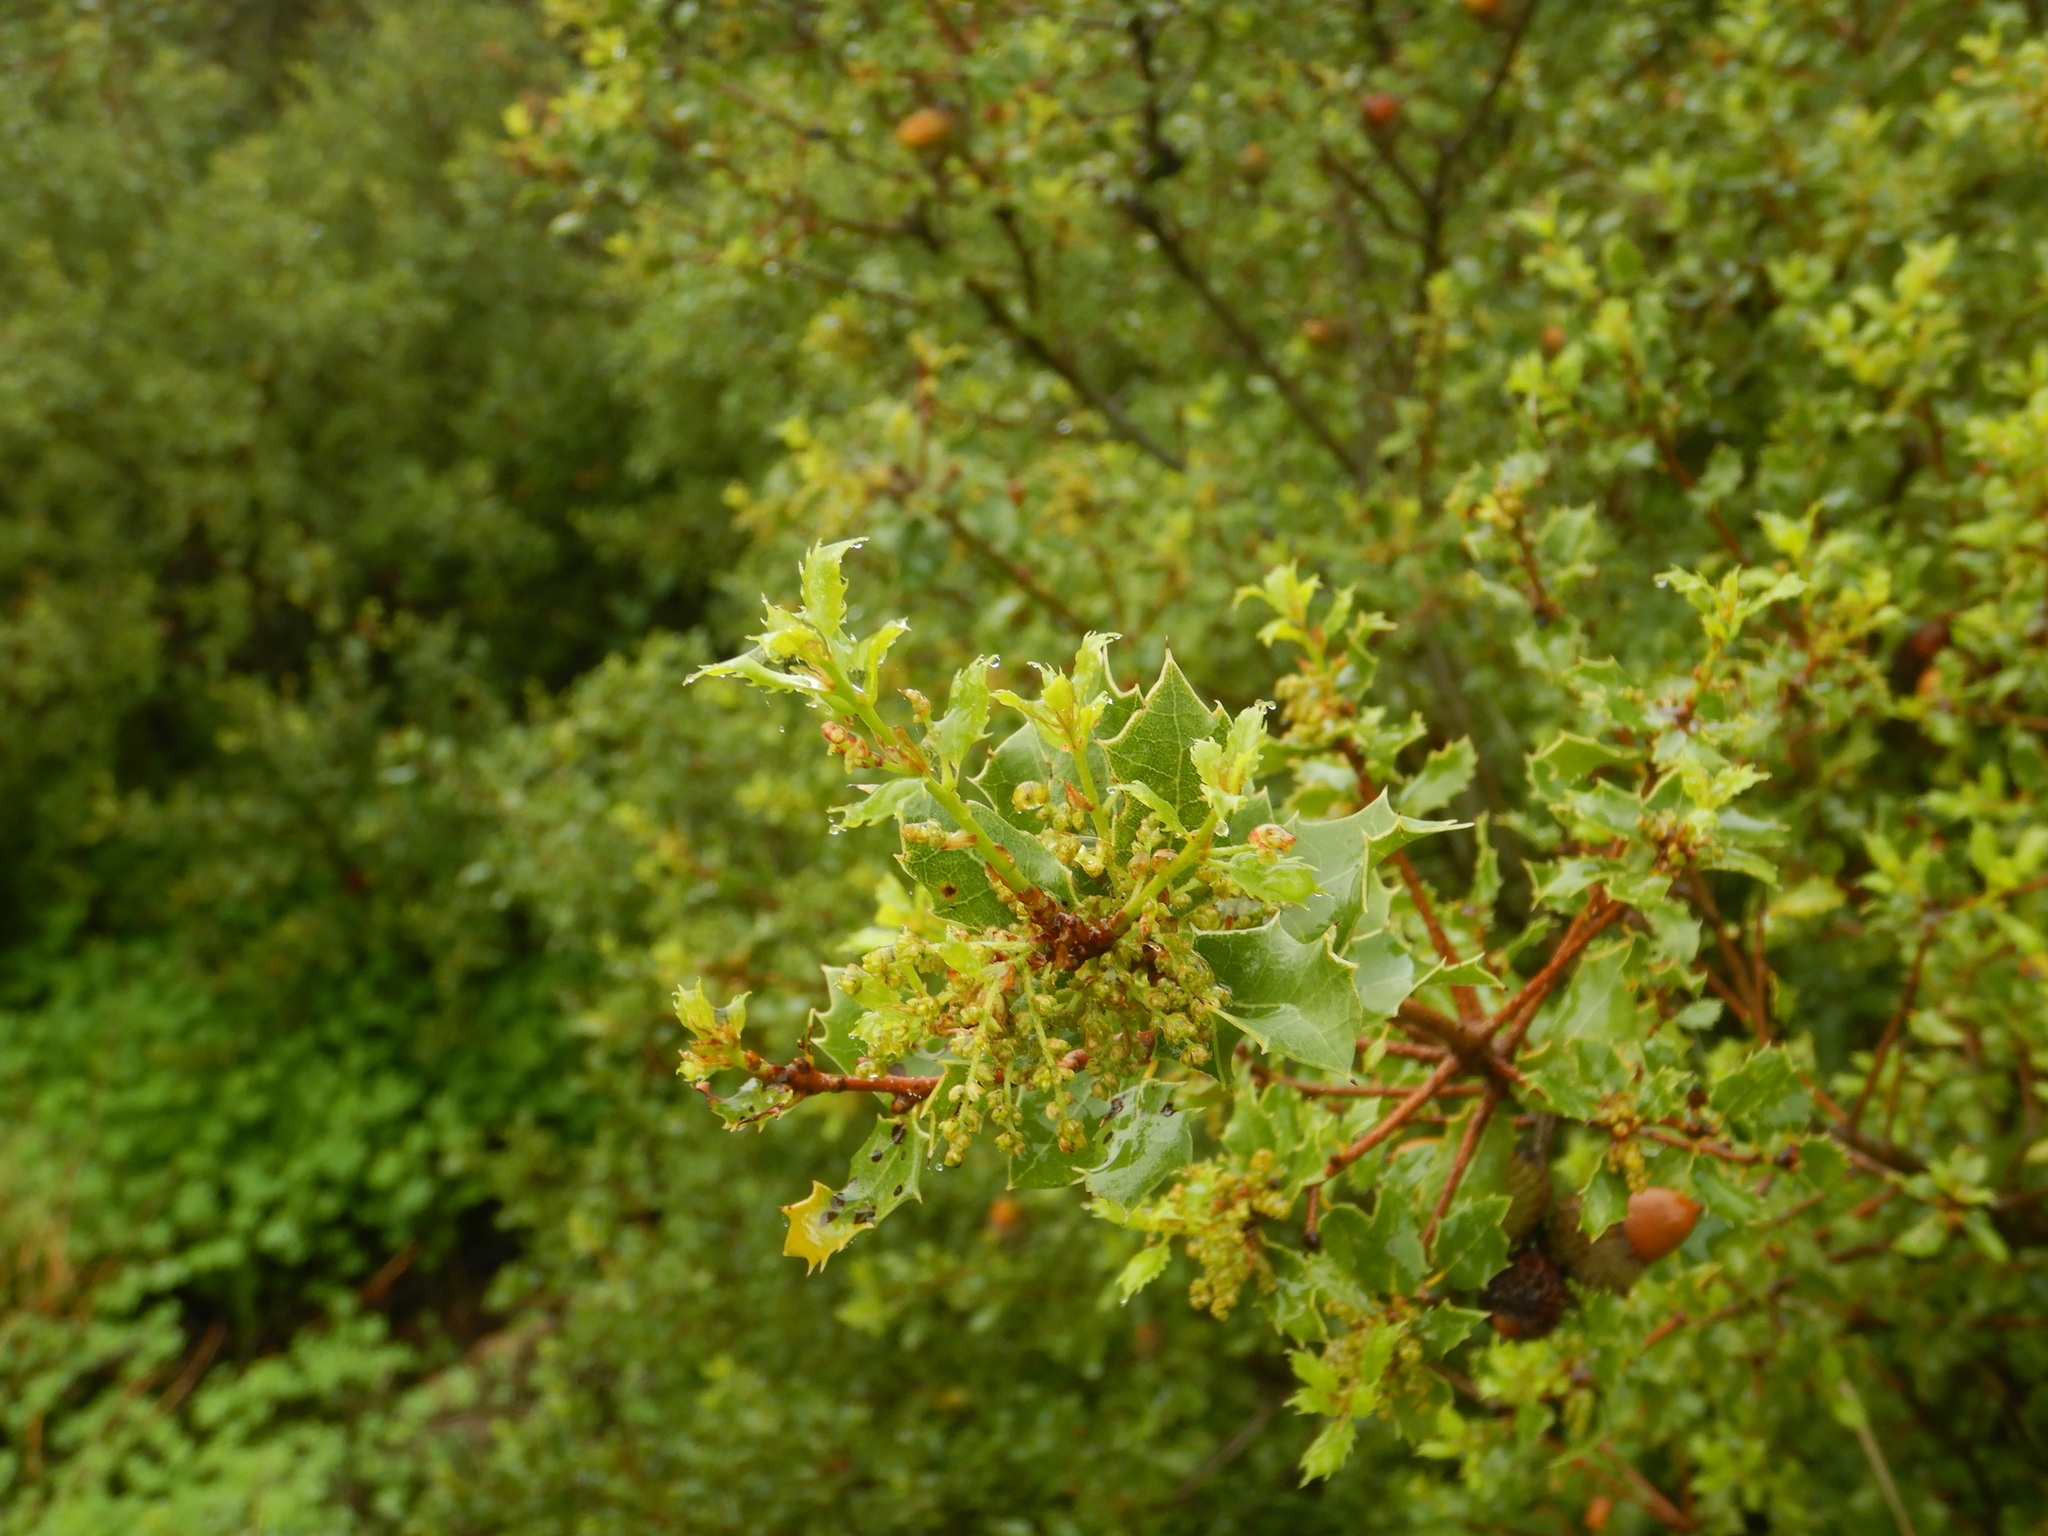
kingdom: Plantae
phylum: Tracheophyta
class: Magnoliopsida
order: Fagales
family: Fagaceae
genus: Quercus
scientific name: Quercus coccifera
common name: Kermes oak
